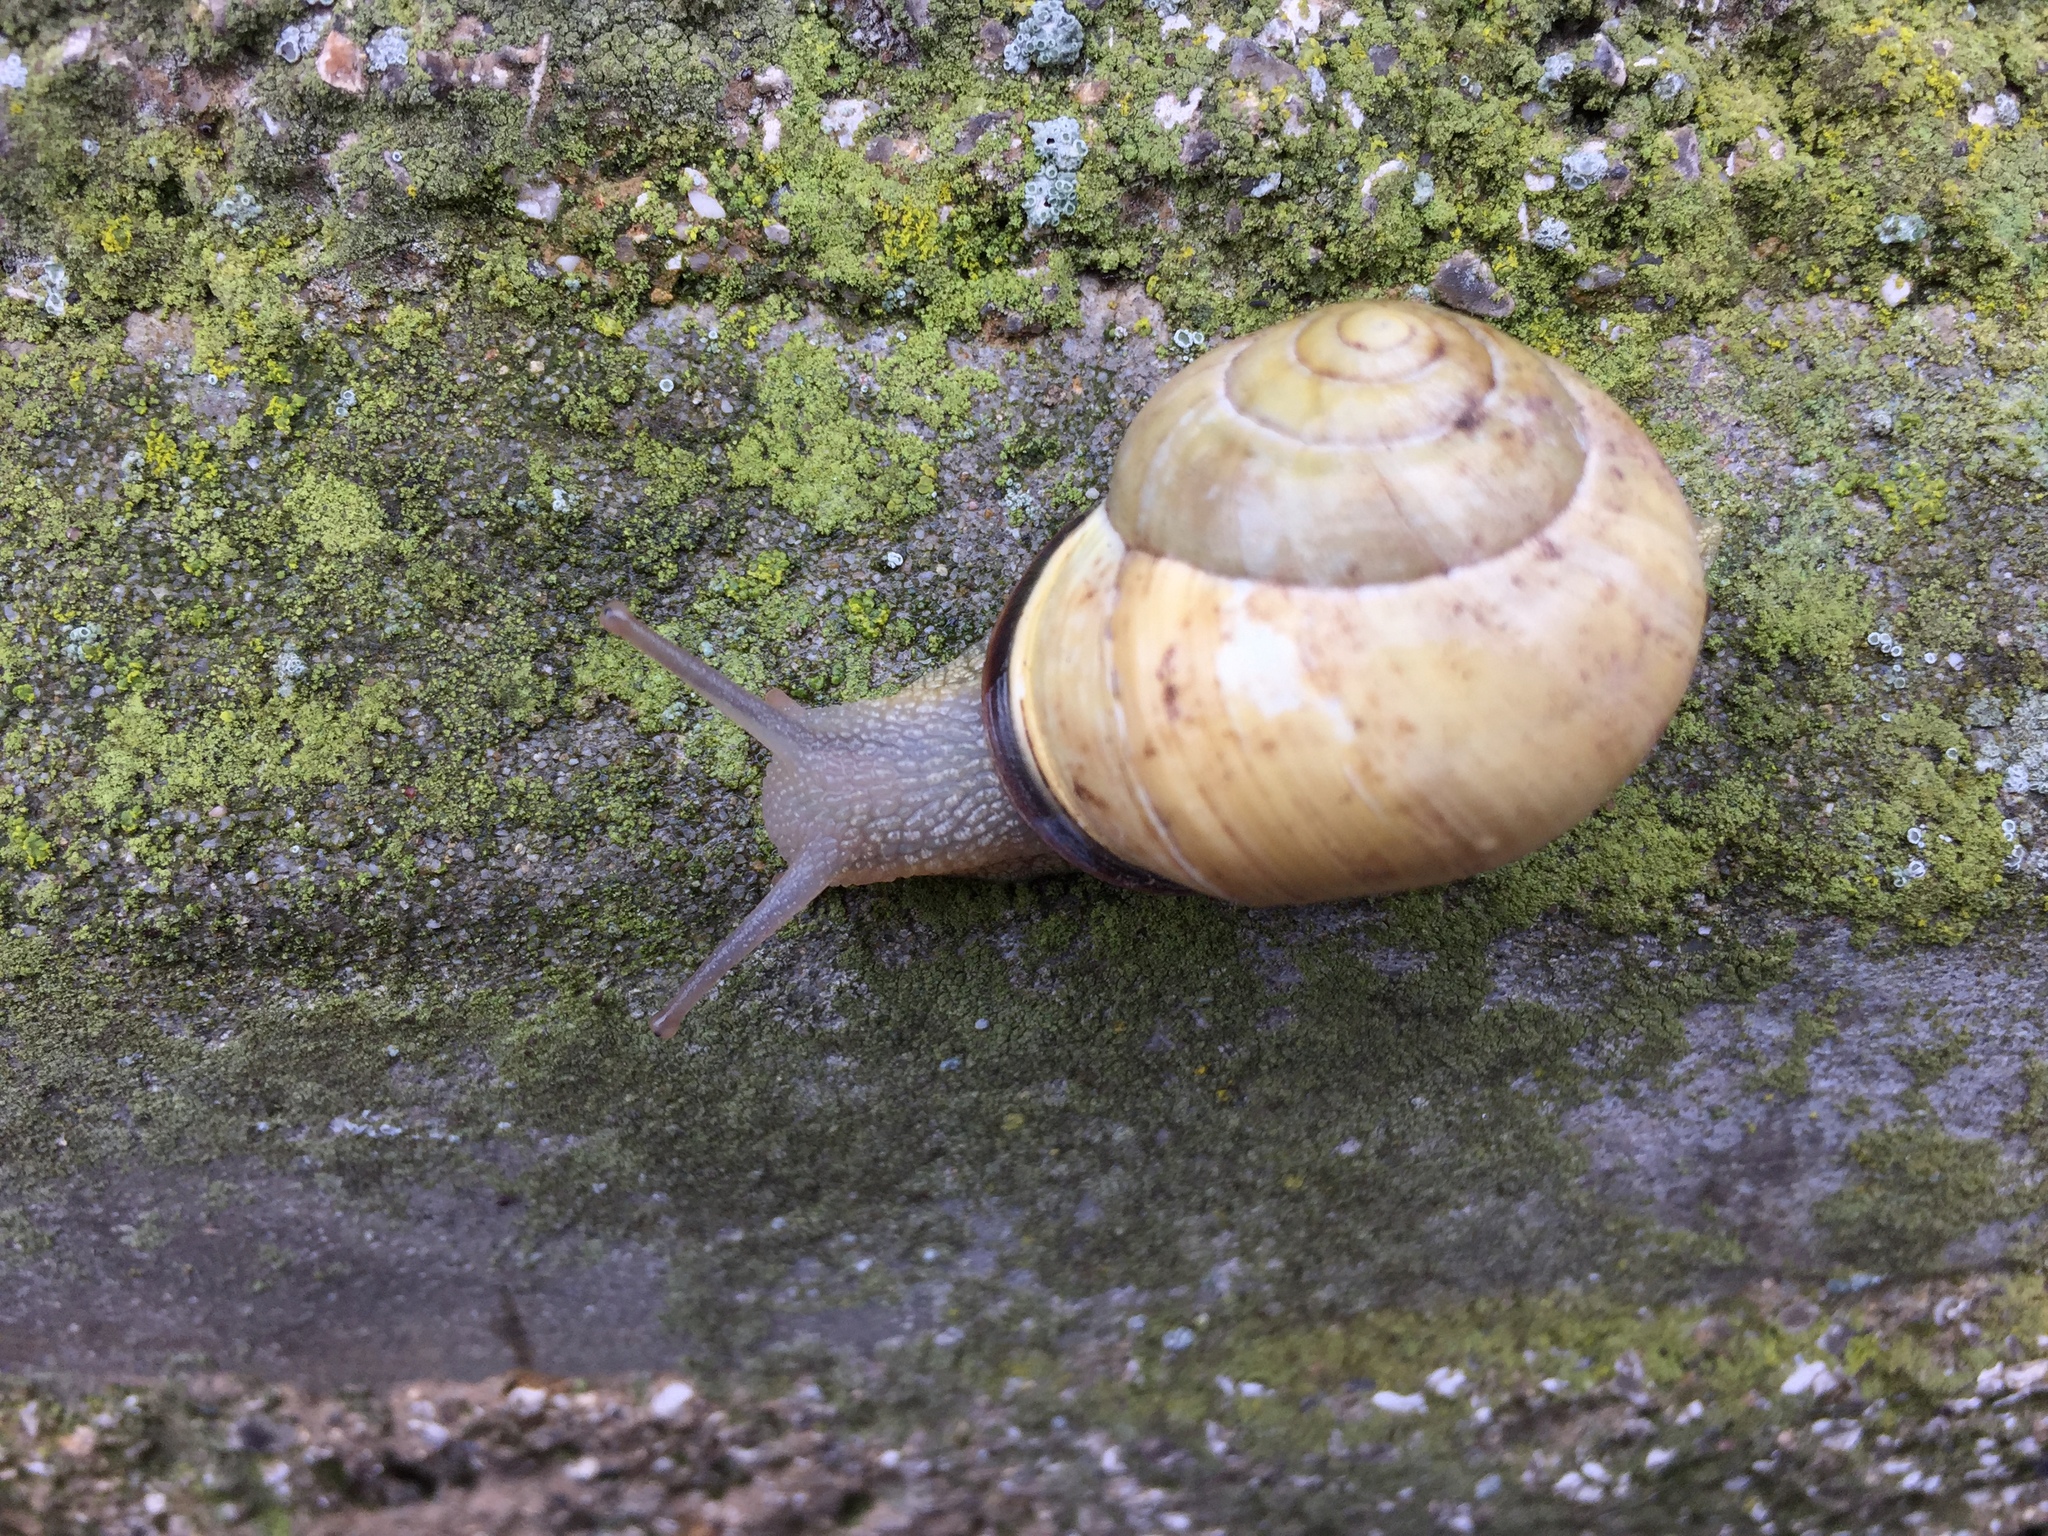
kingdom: Animalia
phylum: Mollusca
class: Gastropoda
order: Stylommatophora
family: Helicidae
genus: Cepaea
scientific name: Cepaea nemoralis
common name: Grovesnail
